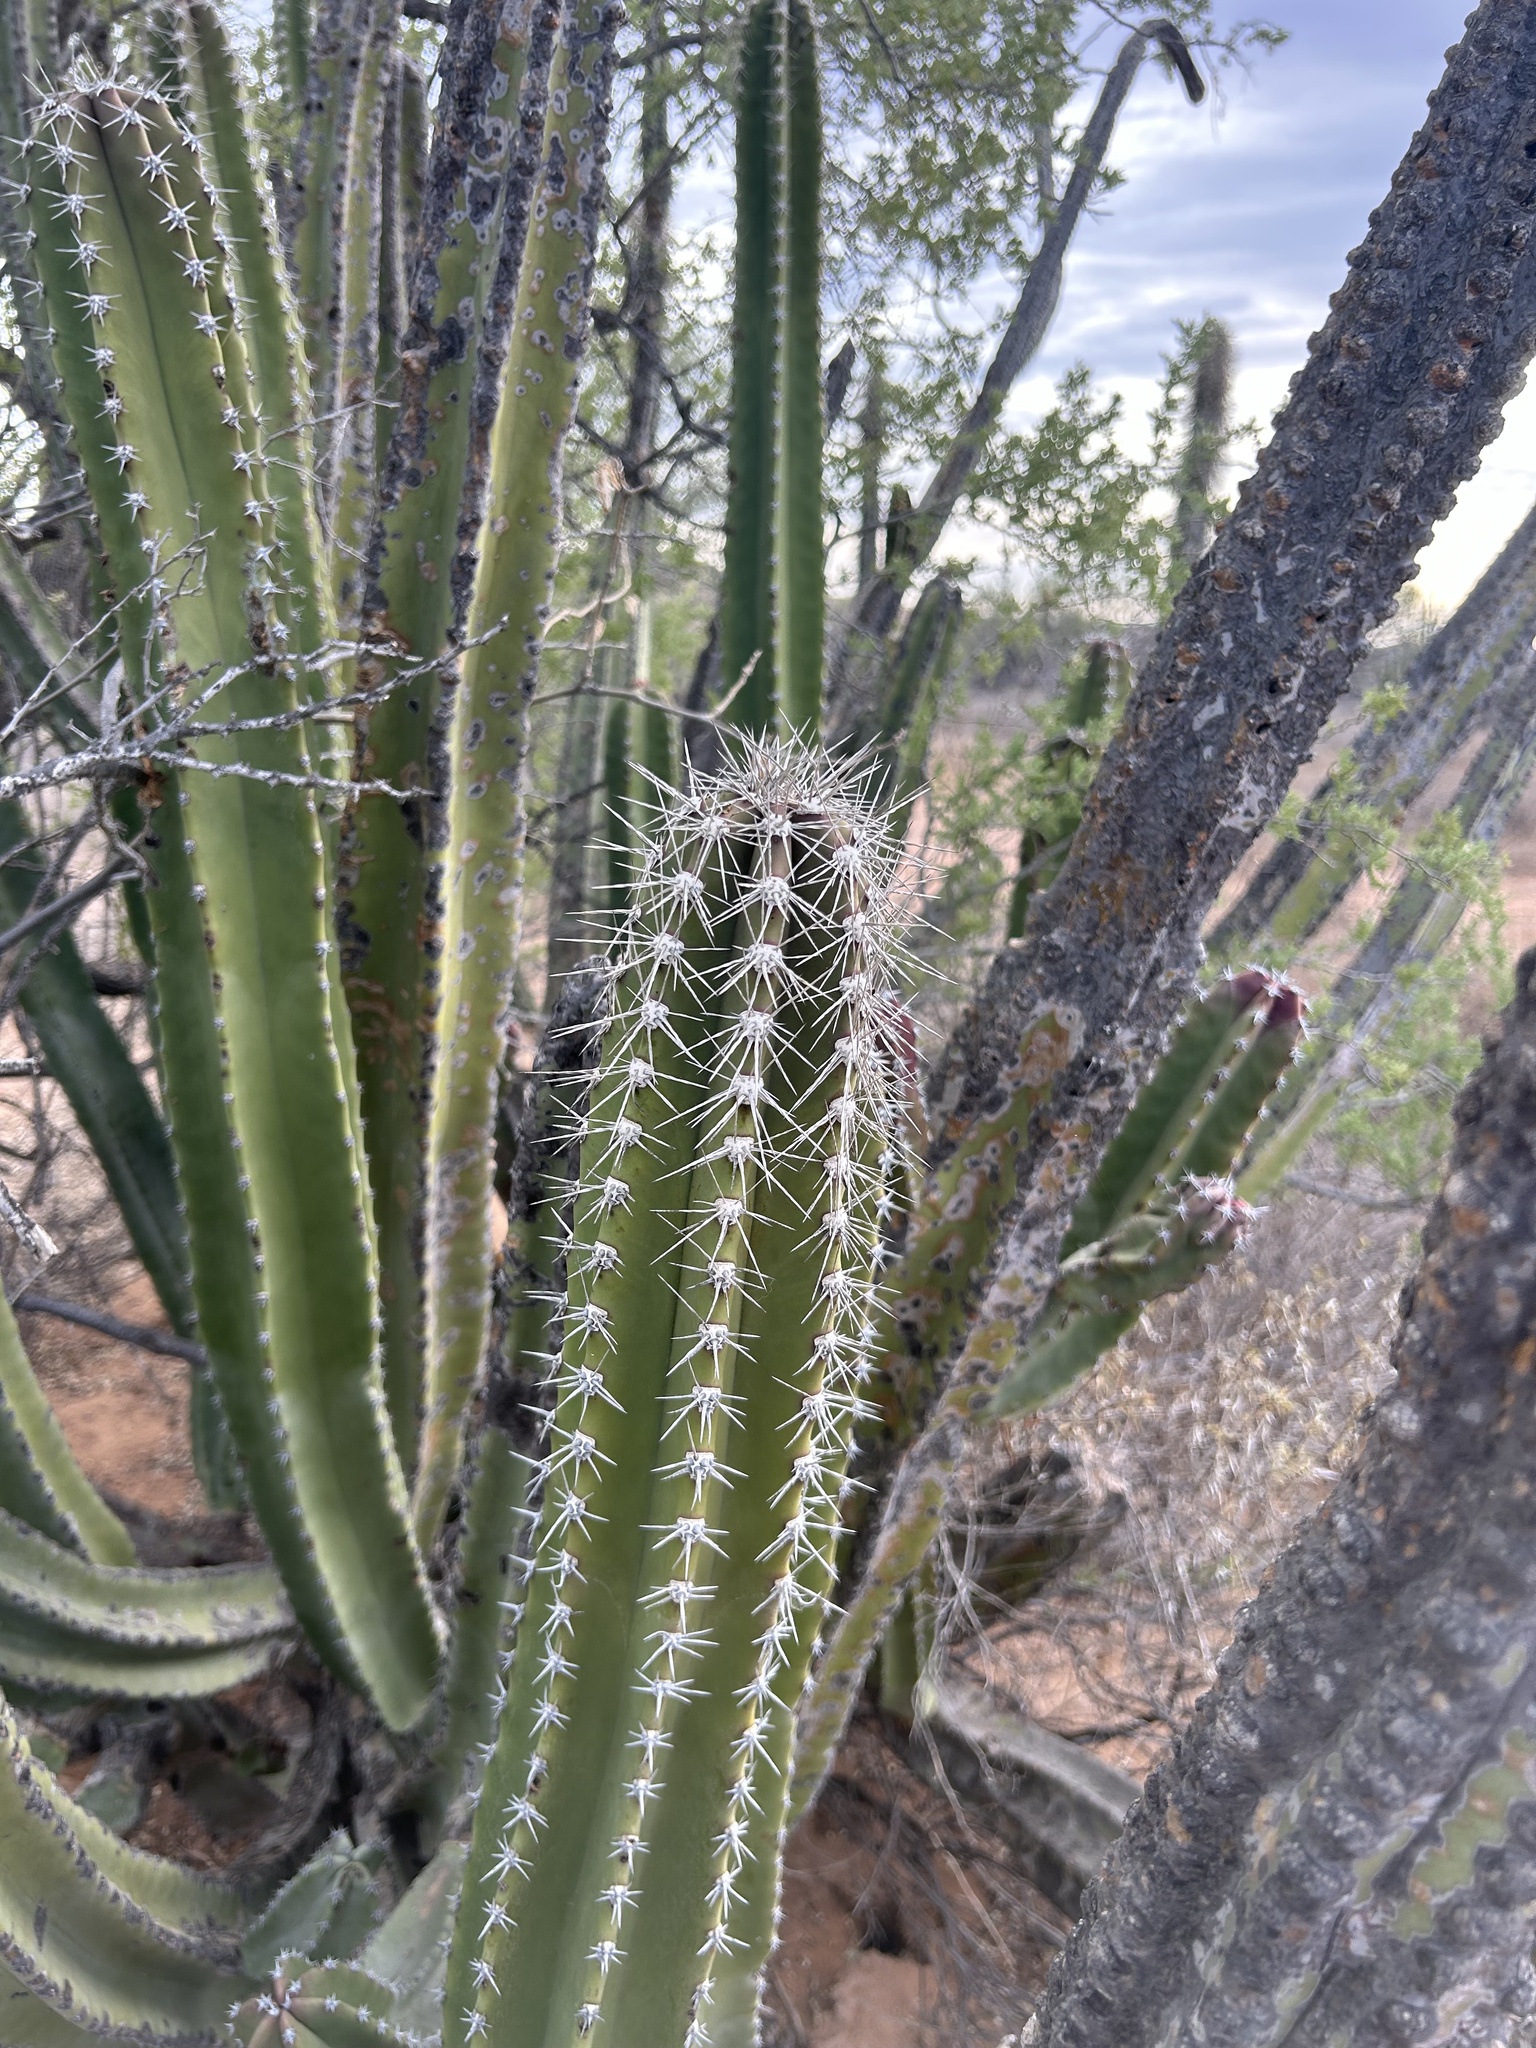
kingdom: Plantae
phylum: Tracheophyta
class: Magnoliopsida
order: Caryophyllales
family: Cactaceae
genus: Pachycereus
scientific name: Pachycereus schottii
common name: Senita cactus
